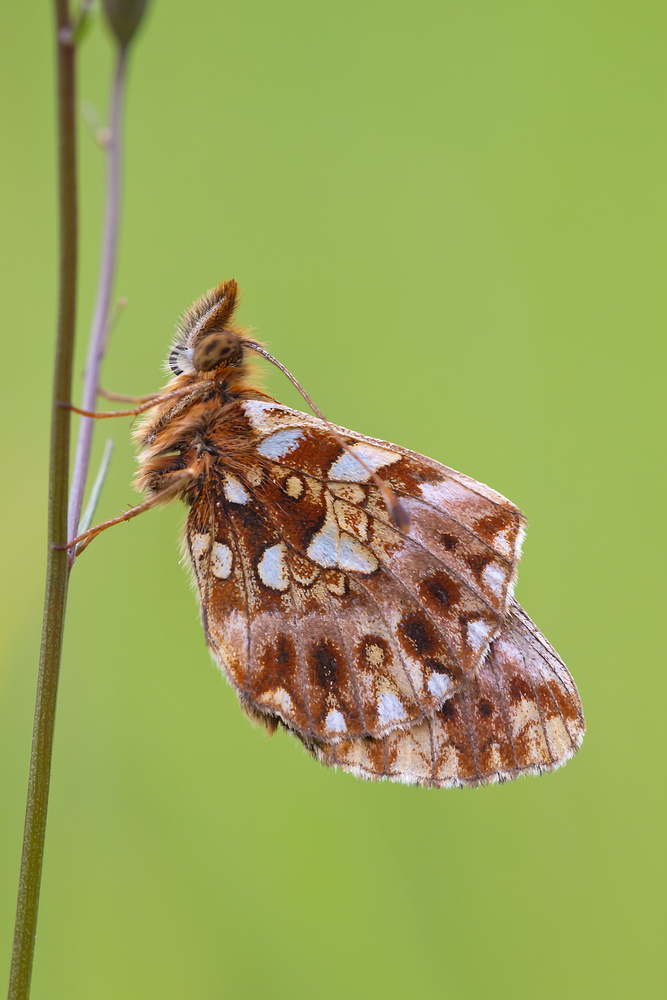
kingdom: Animalia
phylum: Arthropoda
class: Insecta
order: Lepidoptera
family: Nymphalidae
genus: Boloria
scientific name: Boloria dia
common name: Weaver's fritillary
